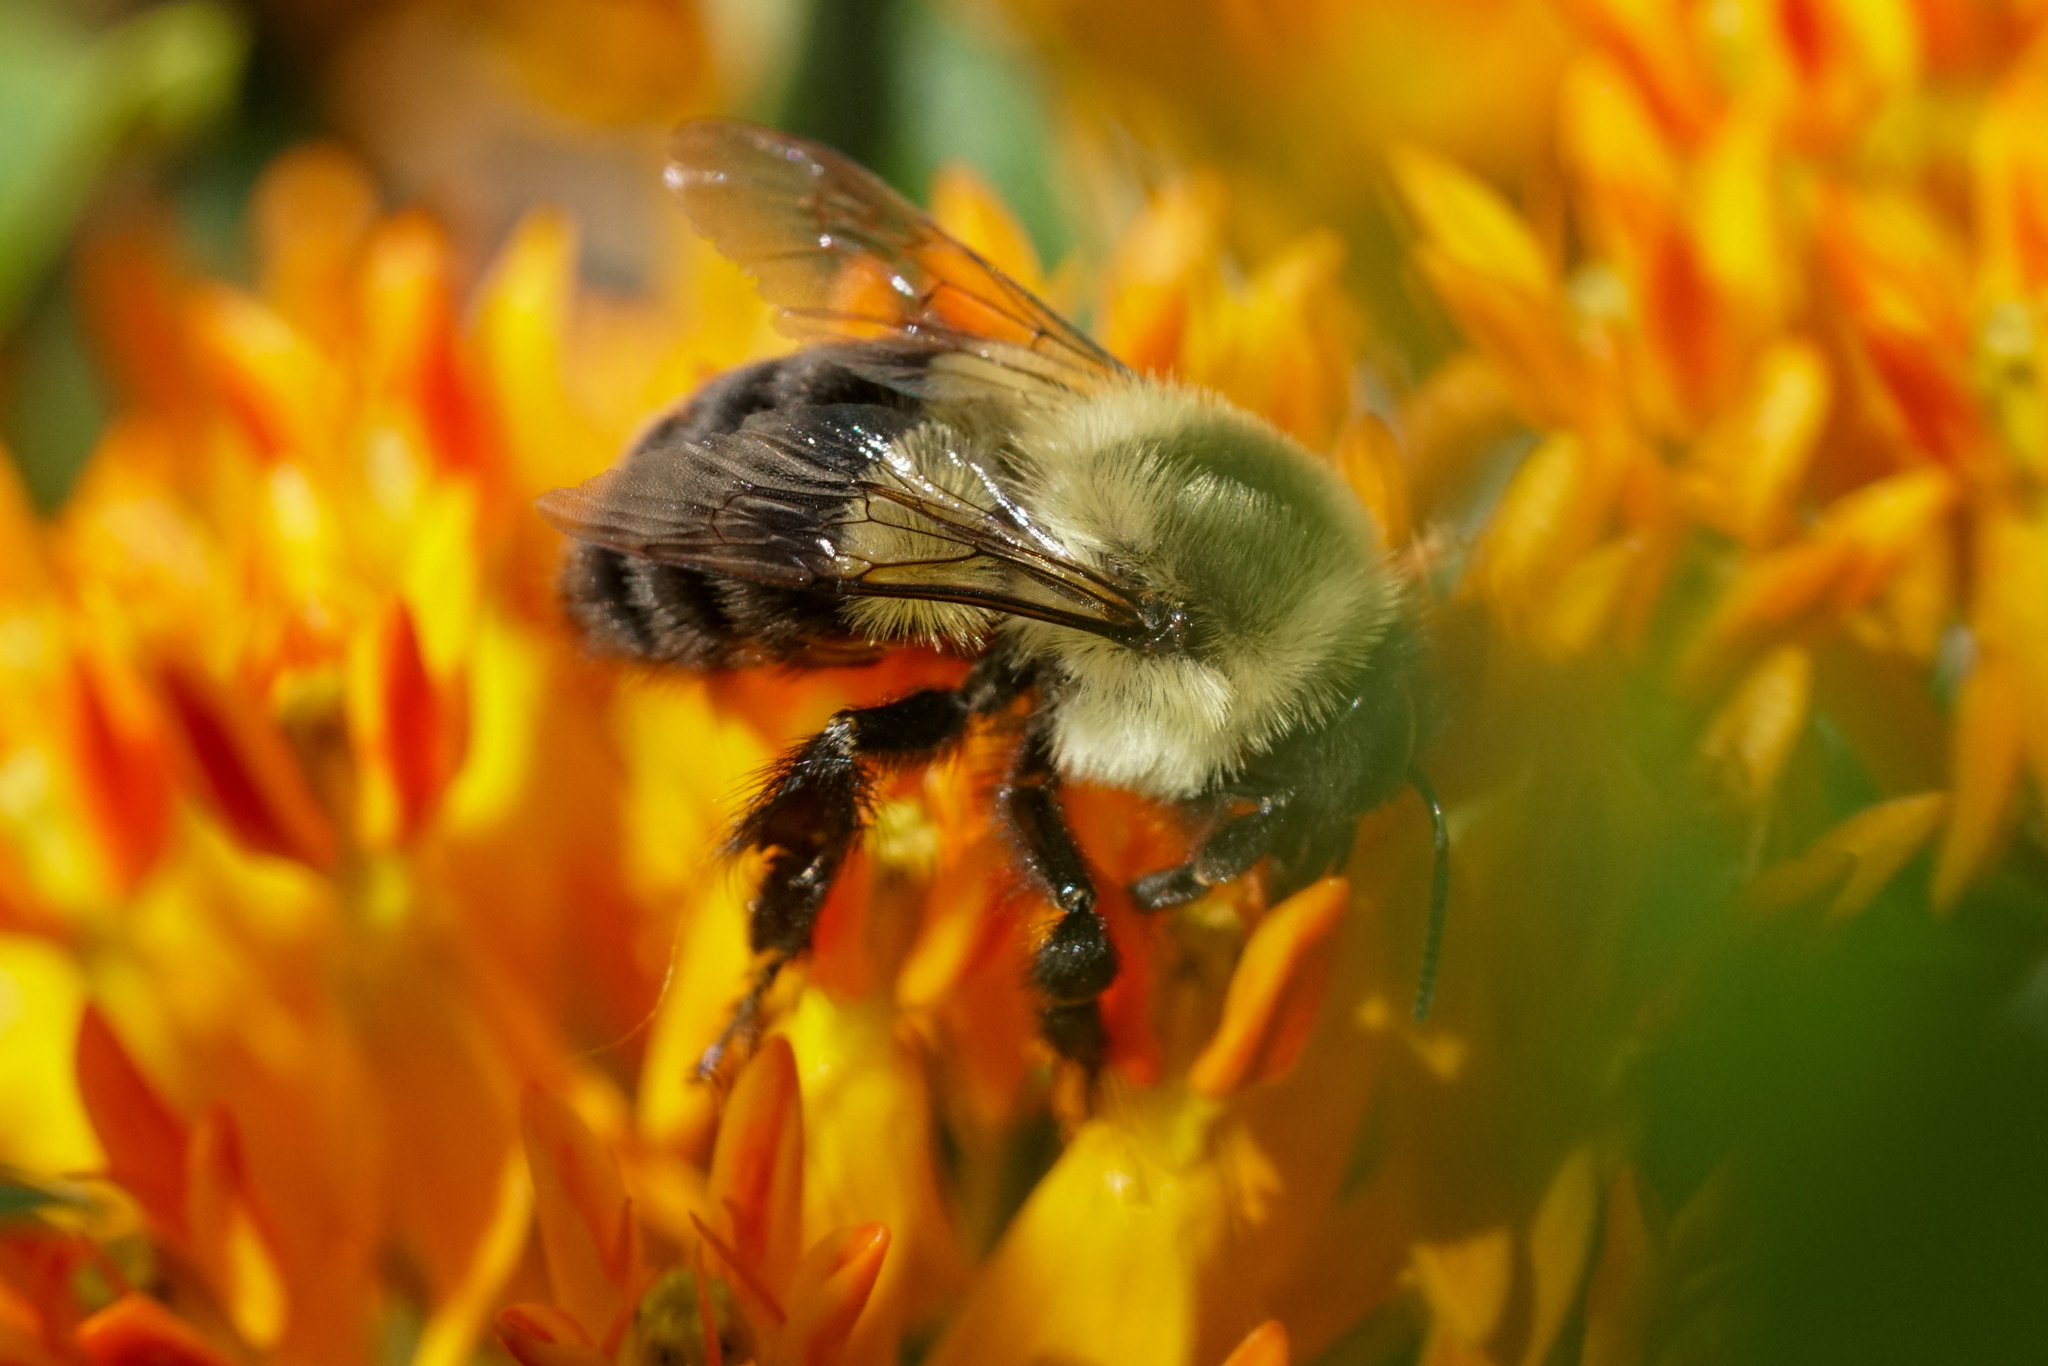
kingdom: Animalia
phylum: Arthropoda
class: Insecta
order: Hymenoptera
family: Apidae
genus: Bombus
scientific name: Bombus impatiens
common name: Common eastern bumble bee
